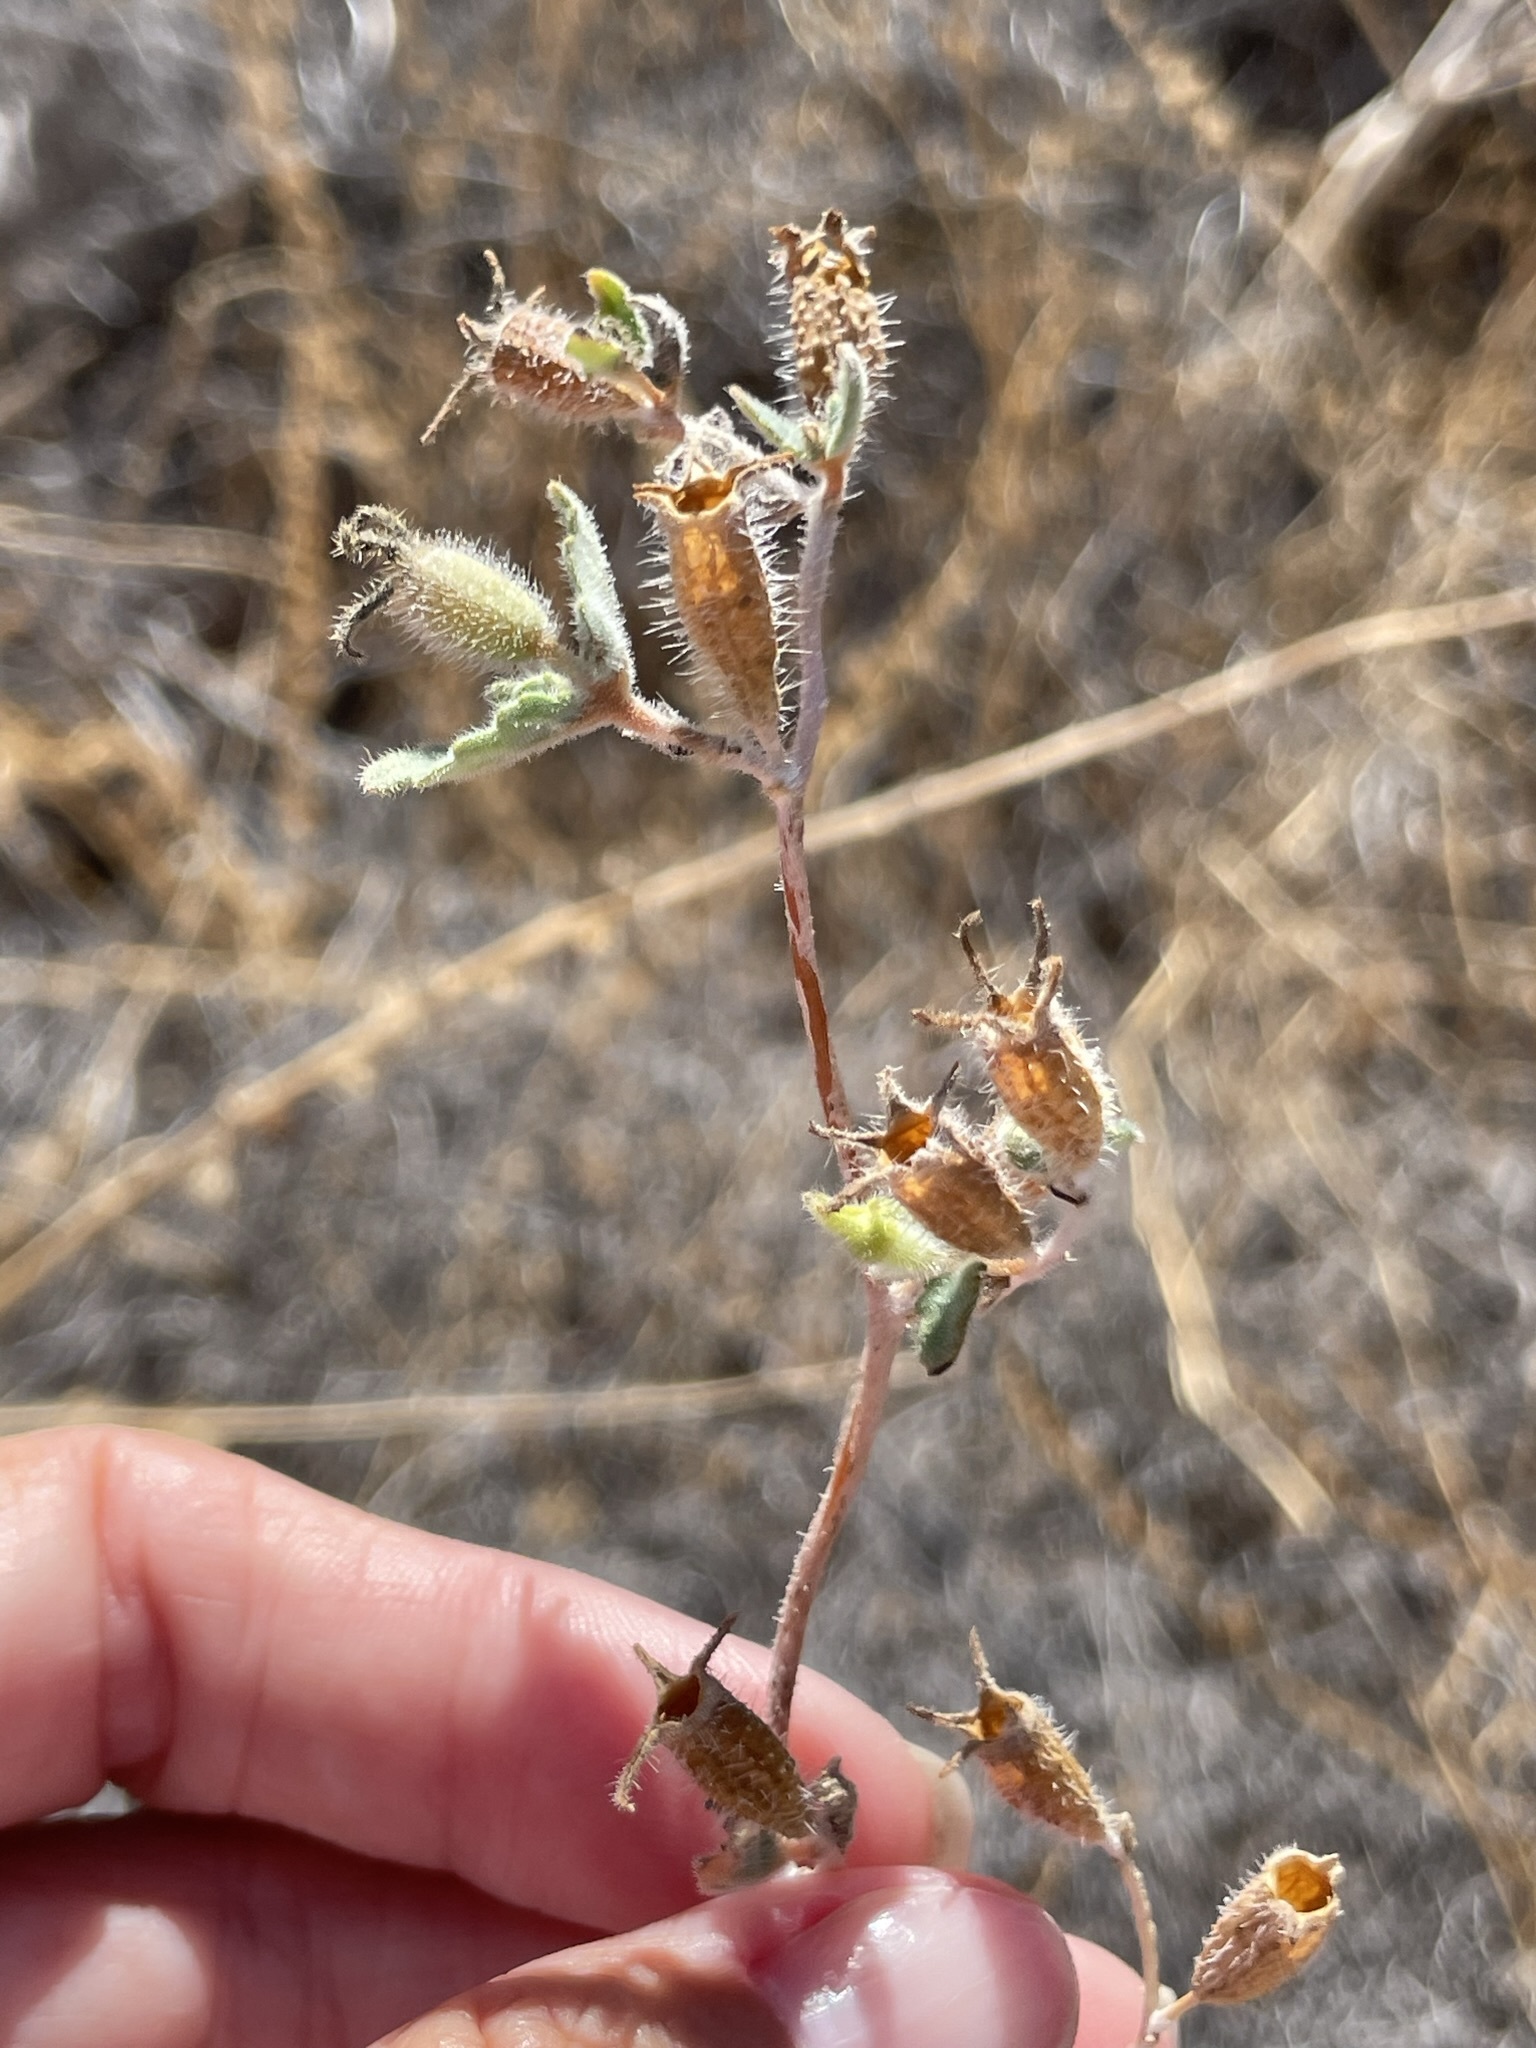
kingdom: Plantae
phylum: Tracheophyta
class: Magnoliopsida
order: Cornales
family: Loasaceae
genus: Mentzelia
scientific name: Mentzelia adhaerens
